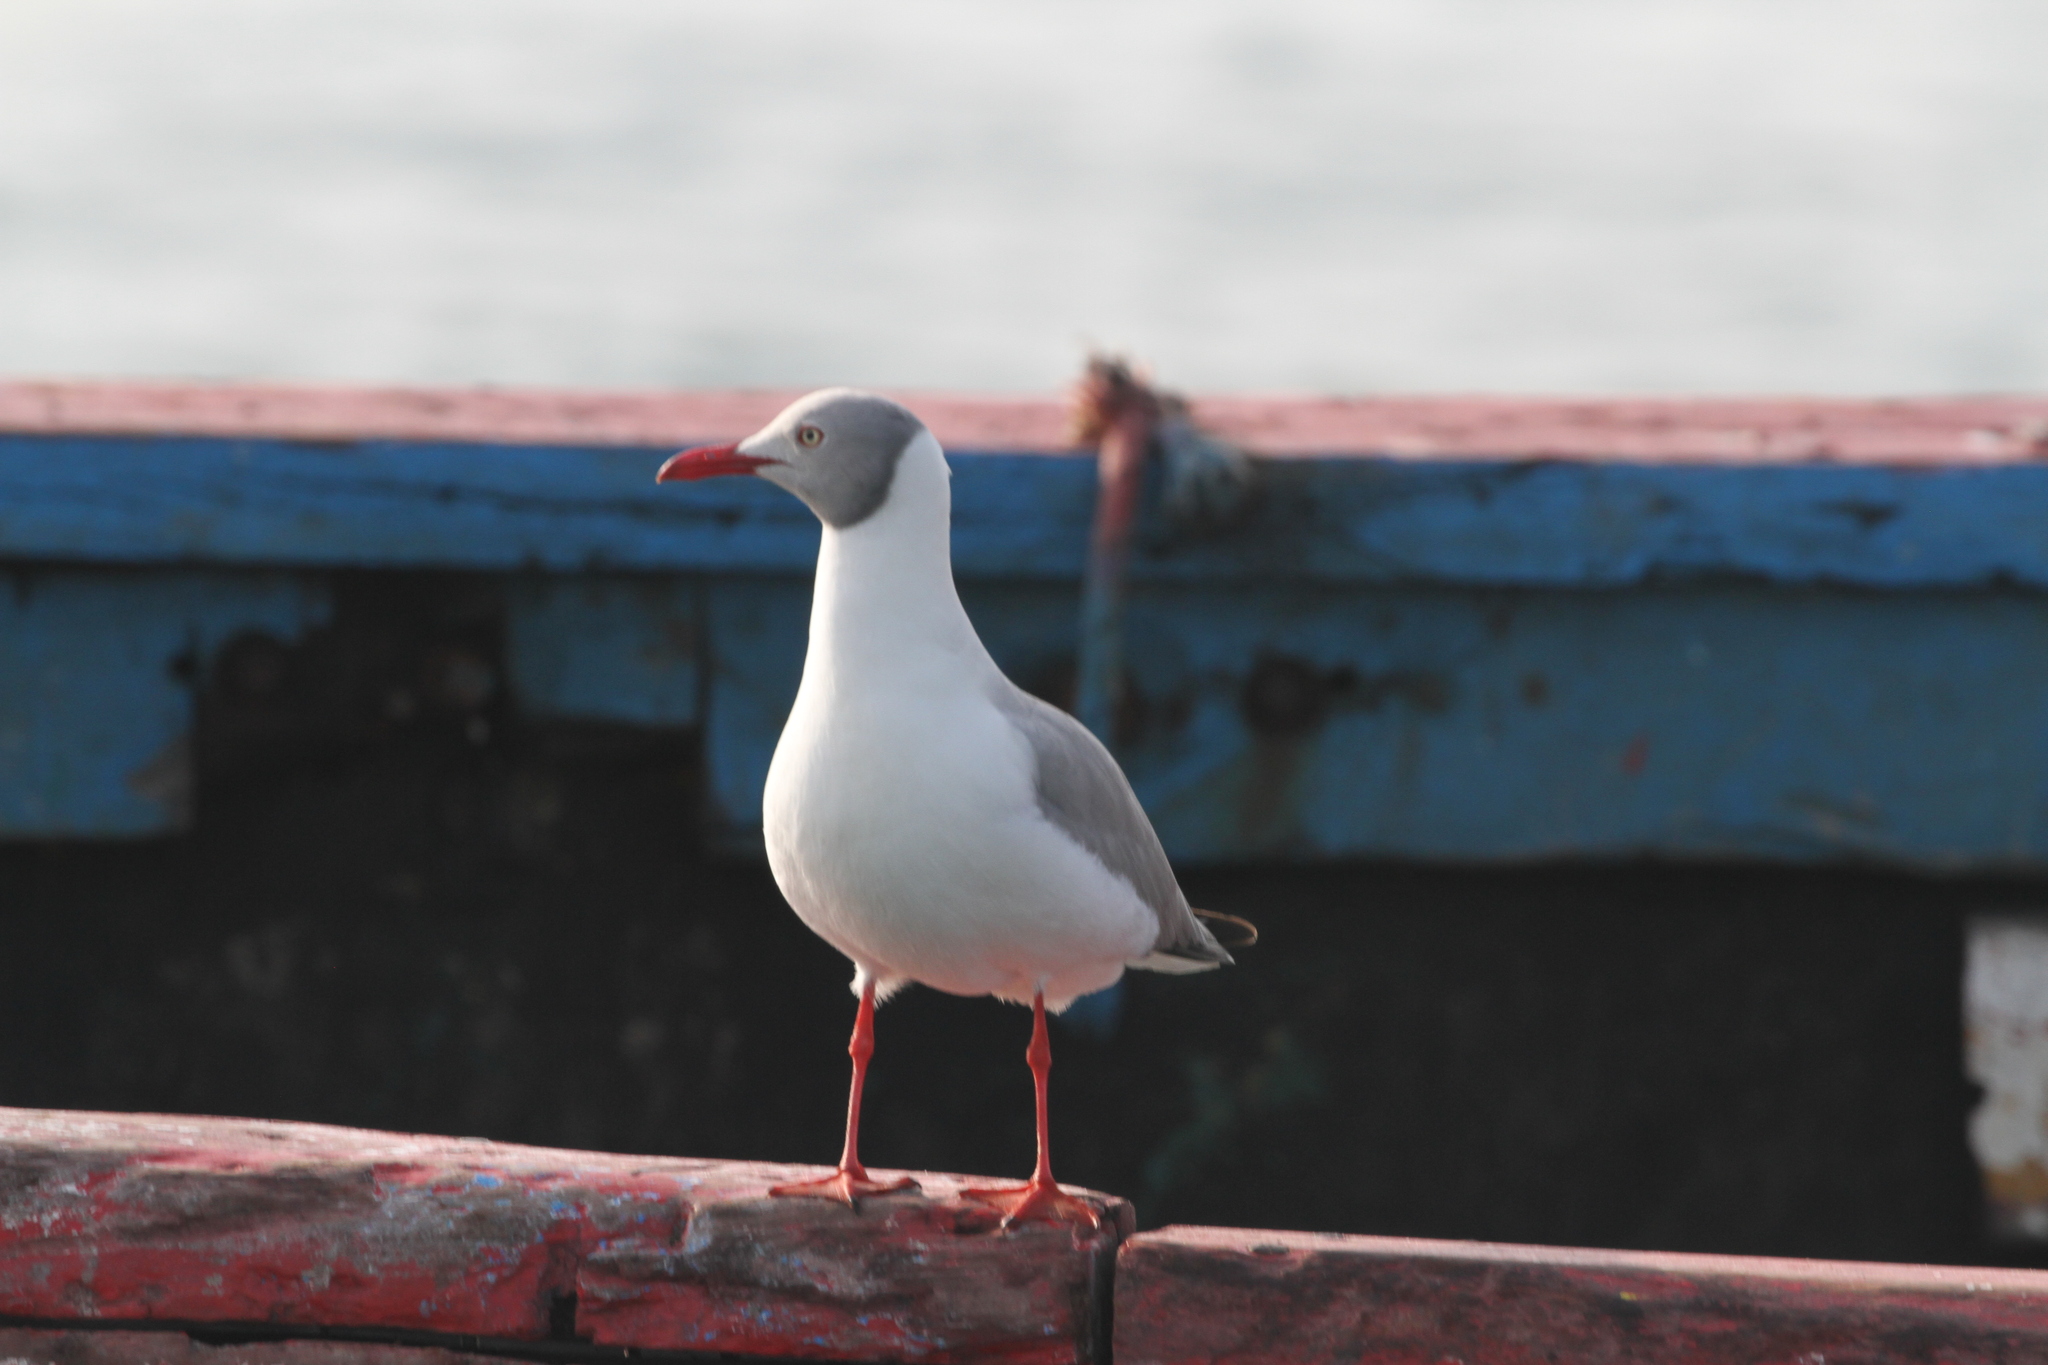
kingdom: Animalia
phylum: Chordata
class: Aves
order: Charadriiformes
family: Laridae
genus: Chroicocephalus
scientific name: Chroicocephalus cirrocephalus
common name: Grey-headed gull
